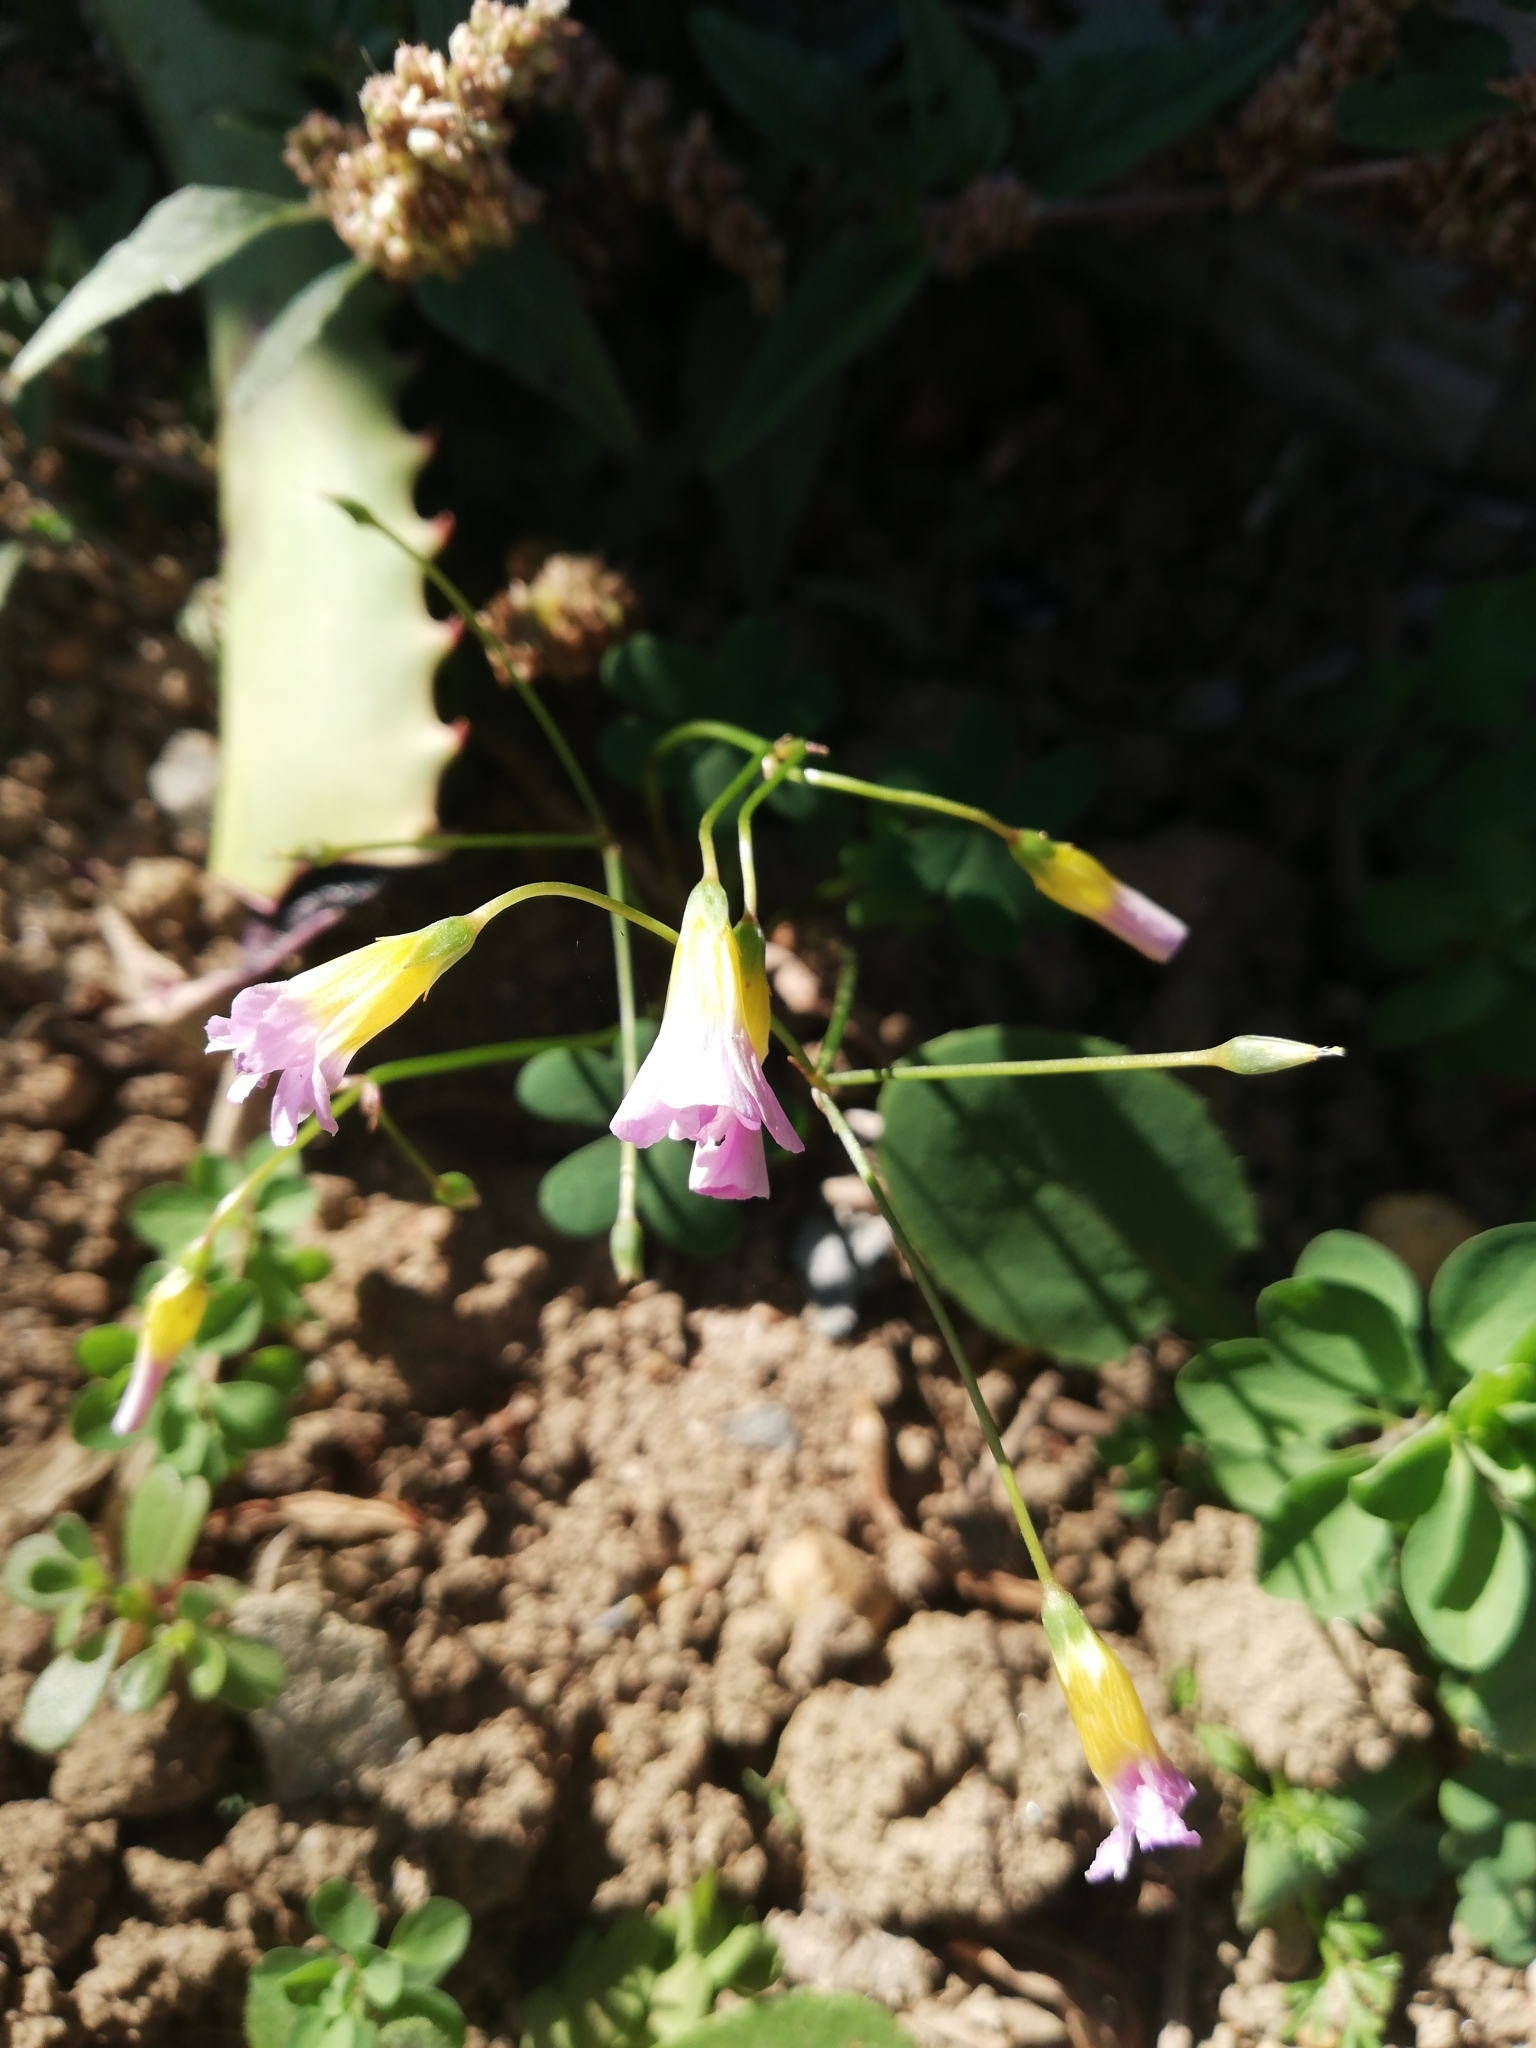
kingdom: Plantae
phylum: Tracheophyta
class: Magnoliopsida
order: Oxalidales
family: Oxalidaceae
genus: Oxalis
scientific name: Oxalis caprina
